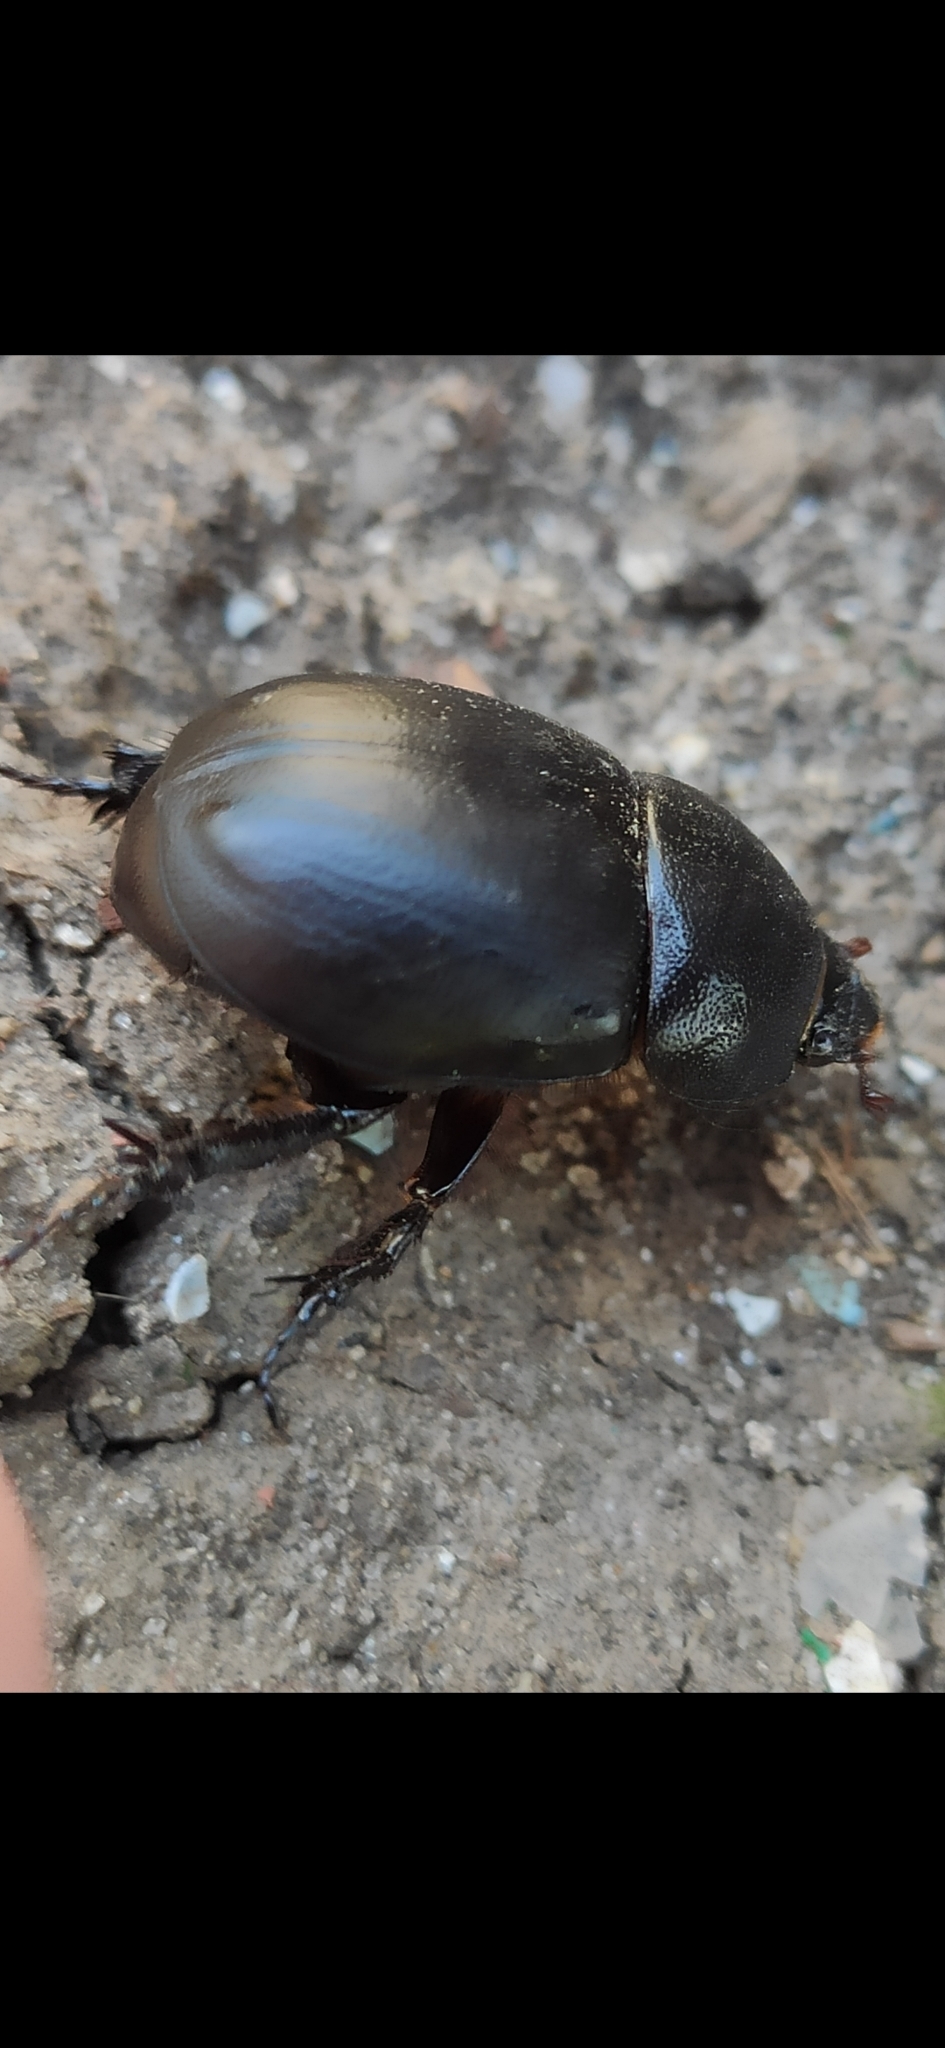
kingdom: Animalia
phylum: Arthropoda
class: Insecta
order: Coleoptera
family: Scarabaeidae
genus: Pentodon
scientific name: Pentodon idiota
